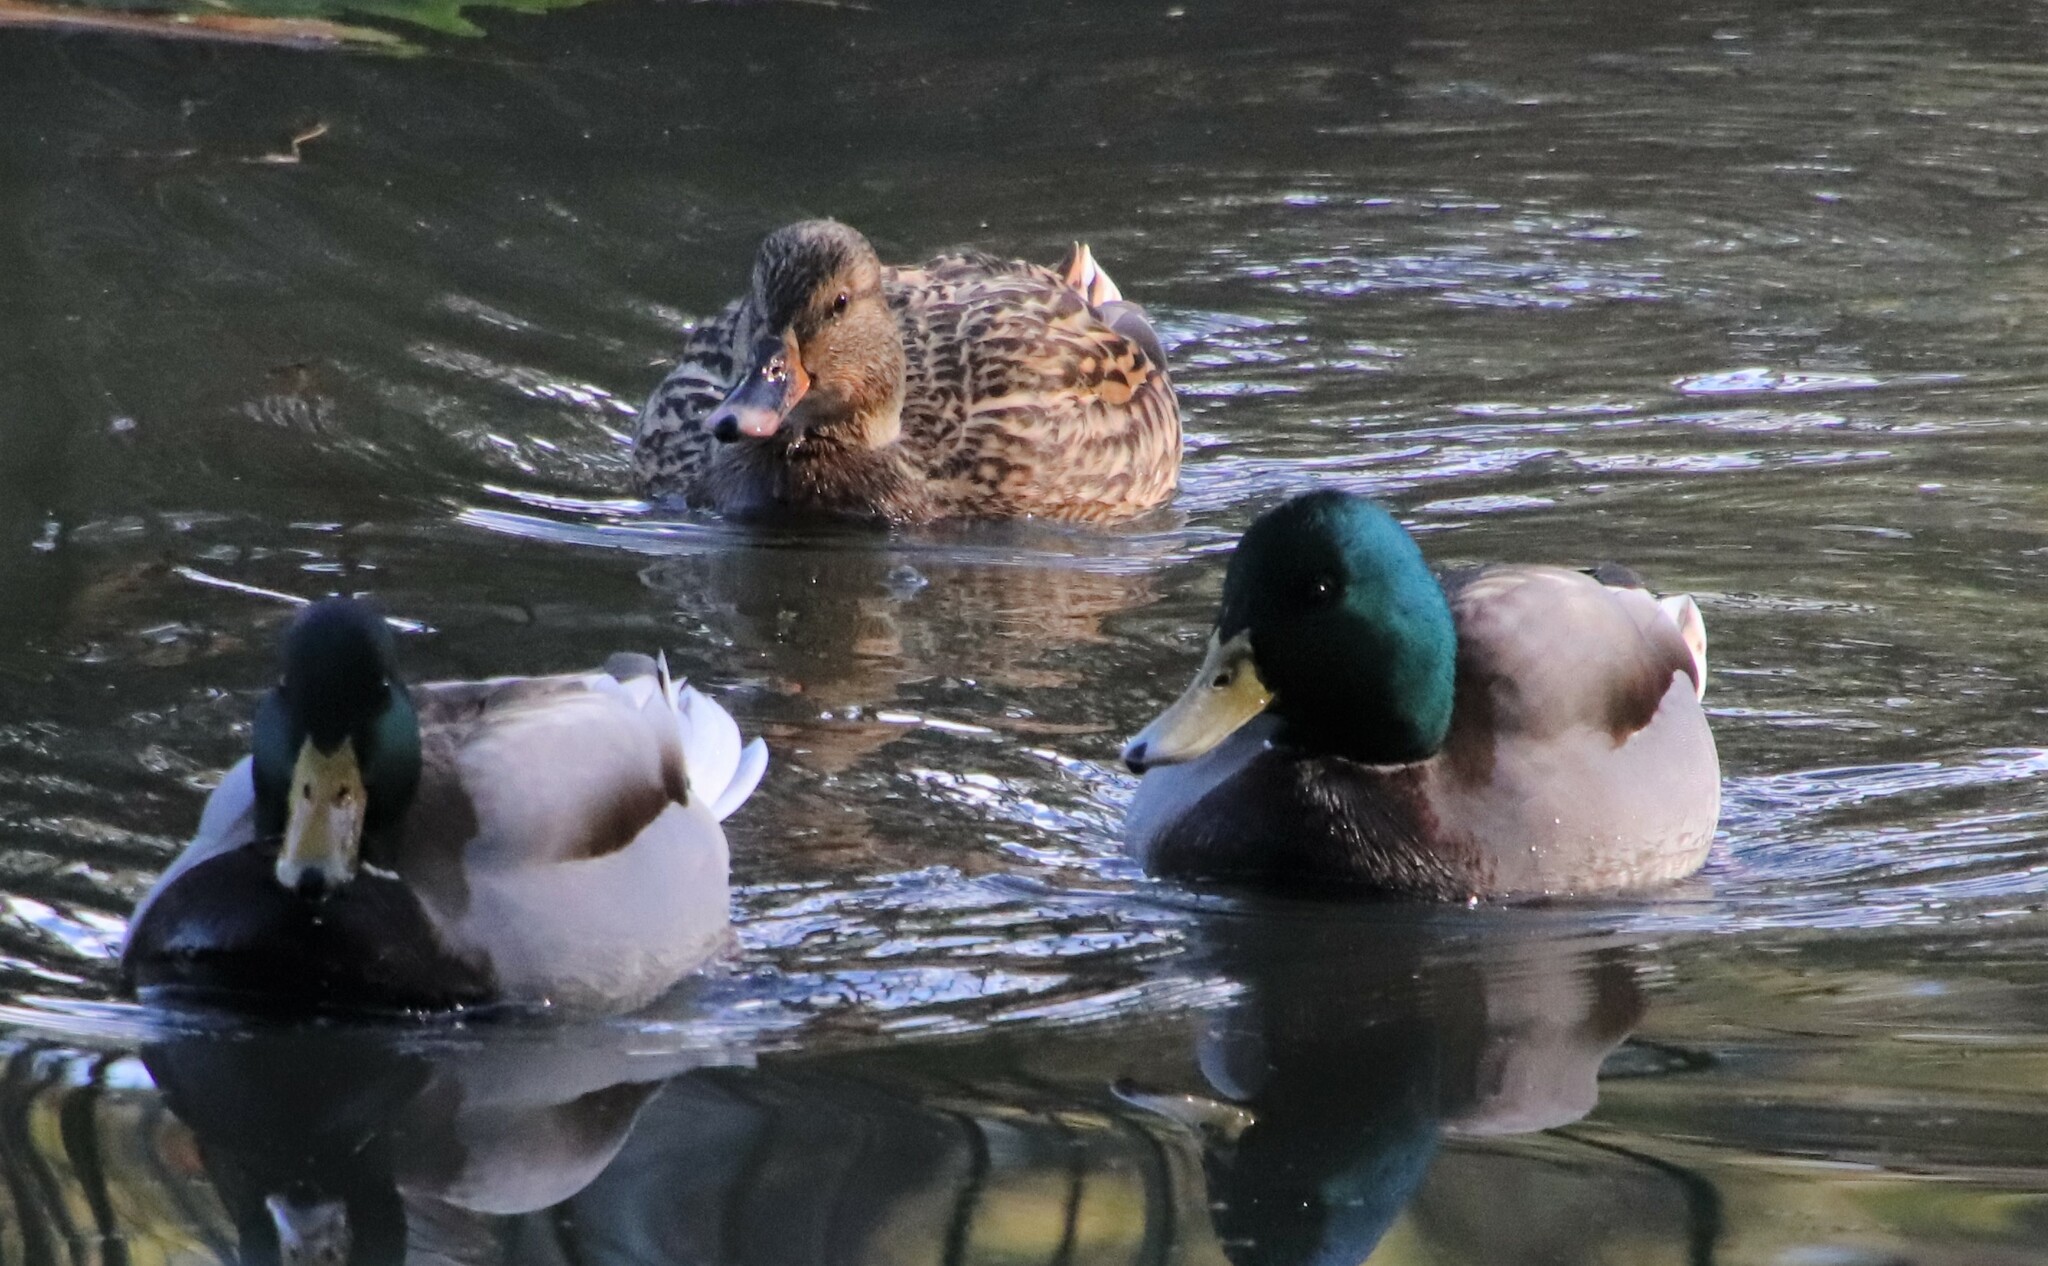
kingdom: Animalia
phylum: Chordata
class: Aves
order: Anseriformes
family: Anatidae
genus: Anas
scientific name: Anas platyrhynchos
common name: Mallard
